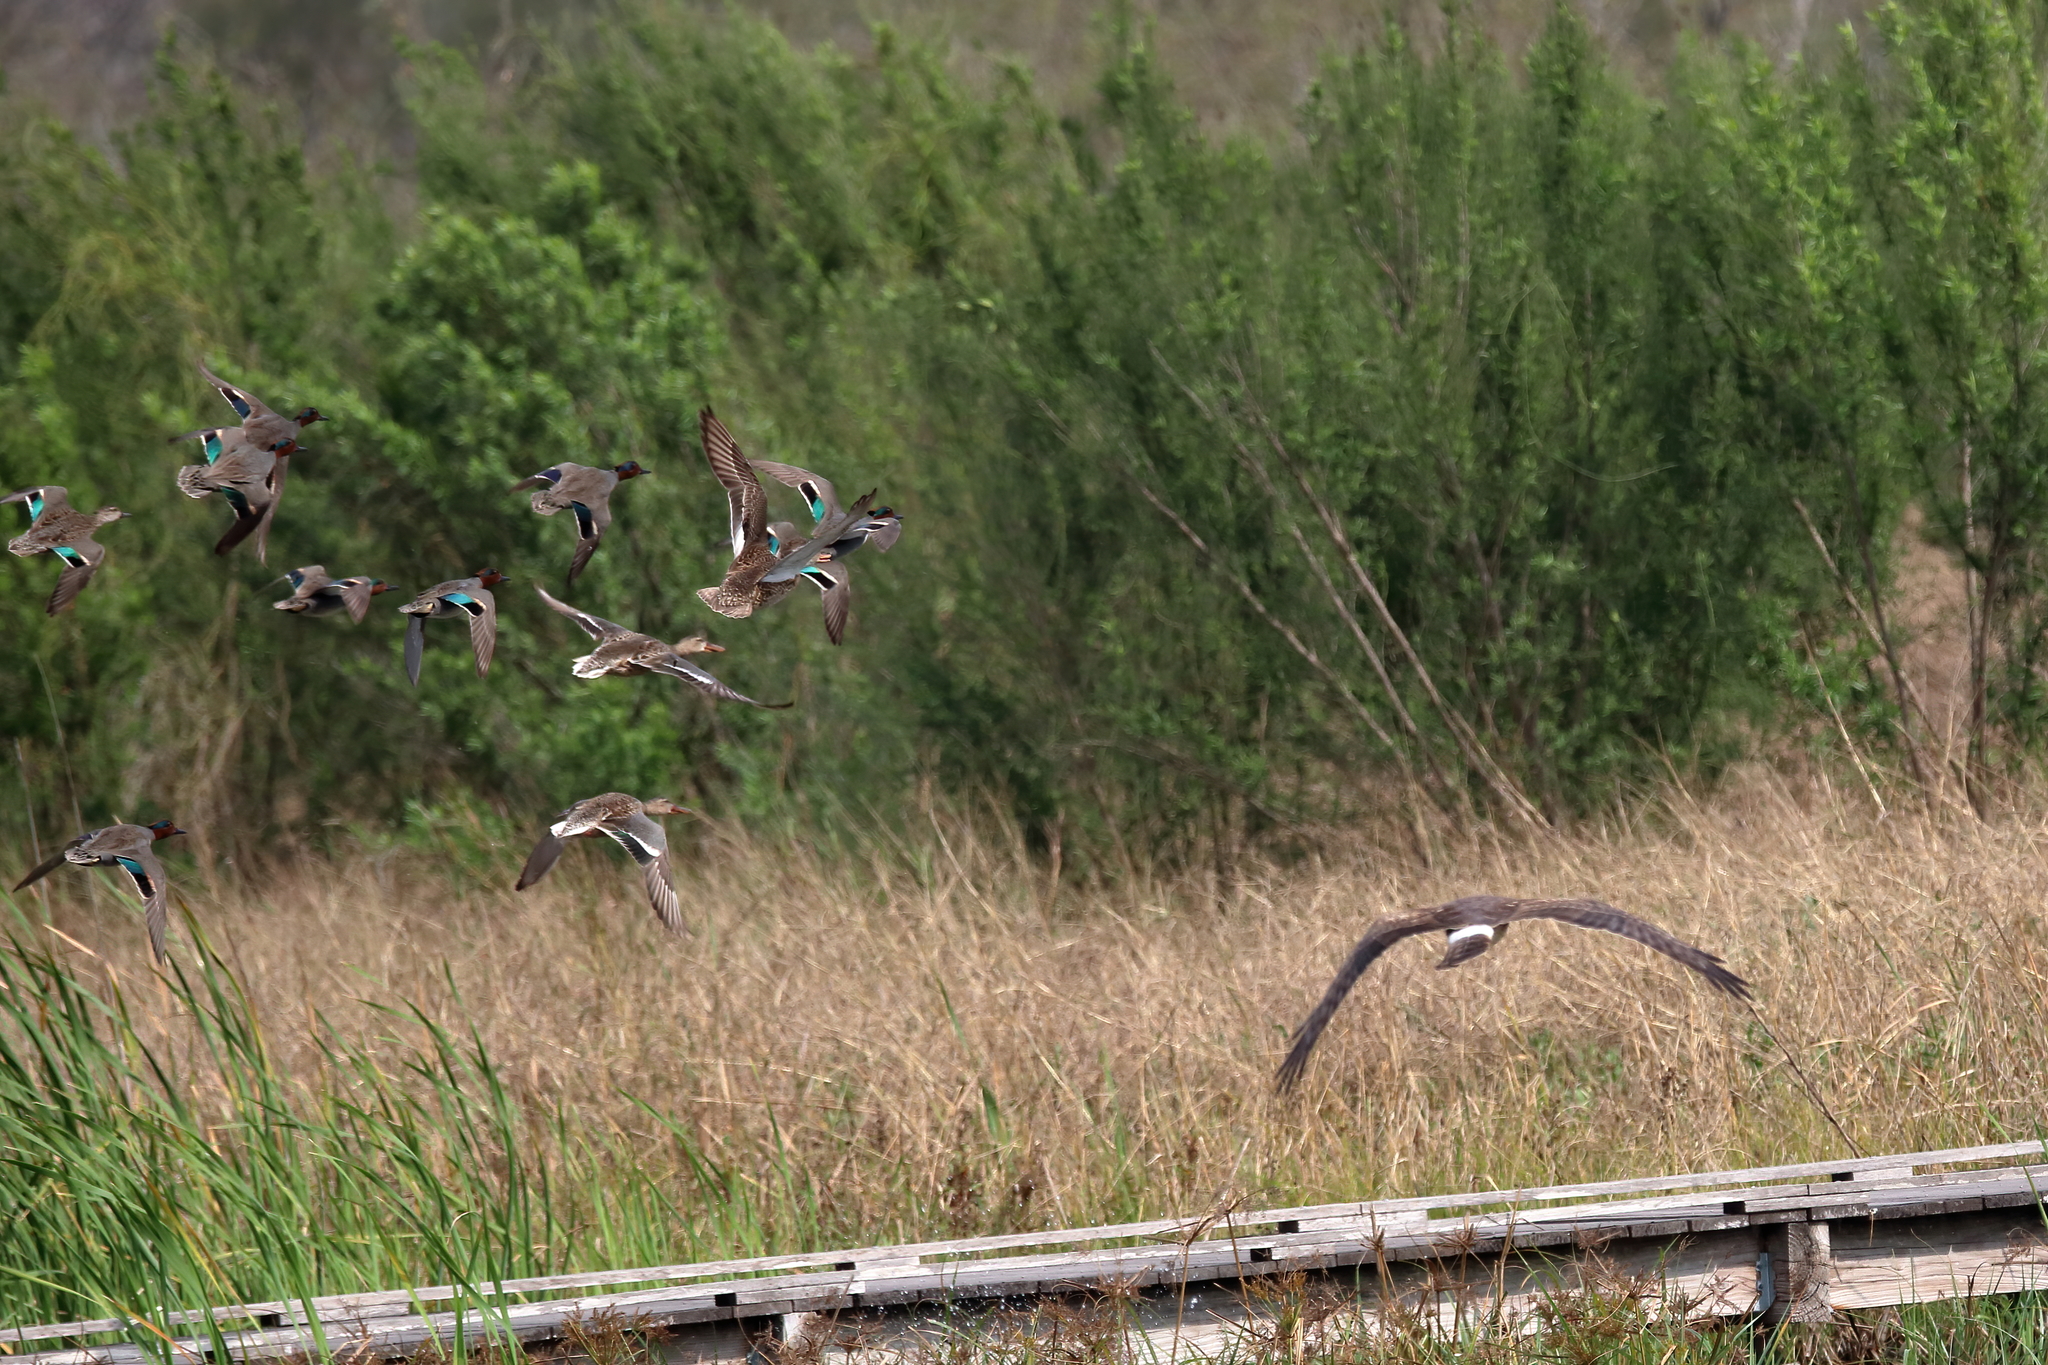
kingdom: Animalia
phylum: Chordata
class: Aves
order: Accipitriformes
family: Accipitridae
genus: Circus
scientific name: Circus cyaneus
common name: Hen harrier
